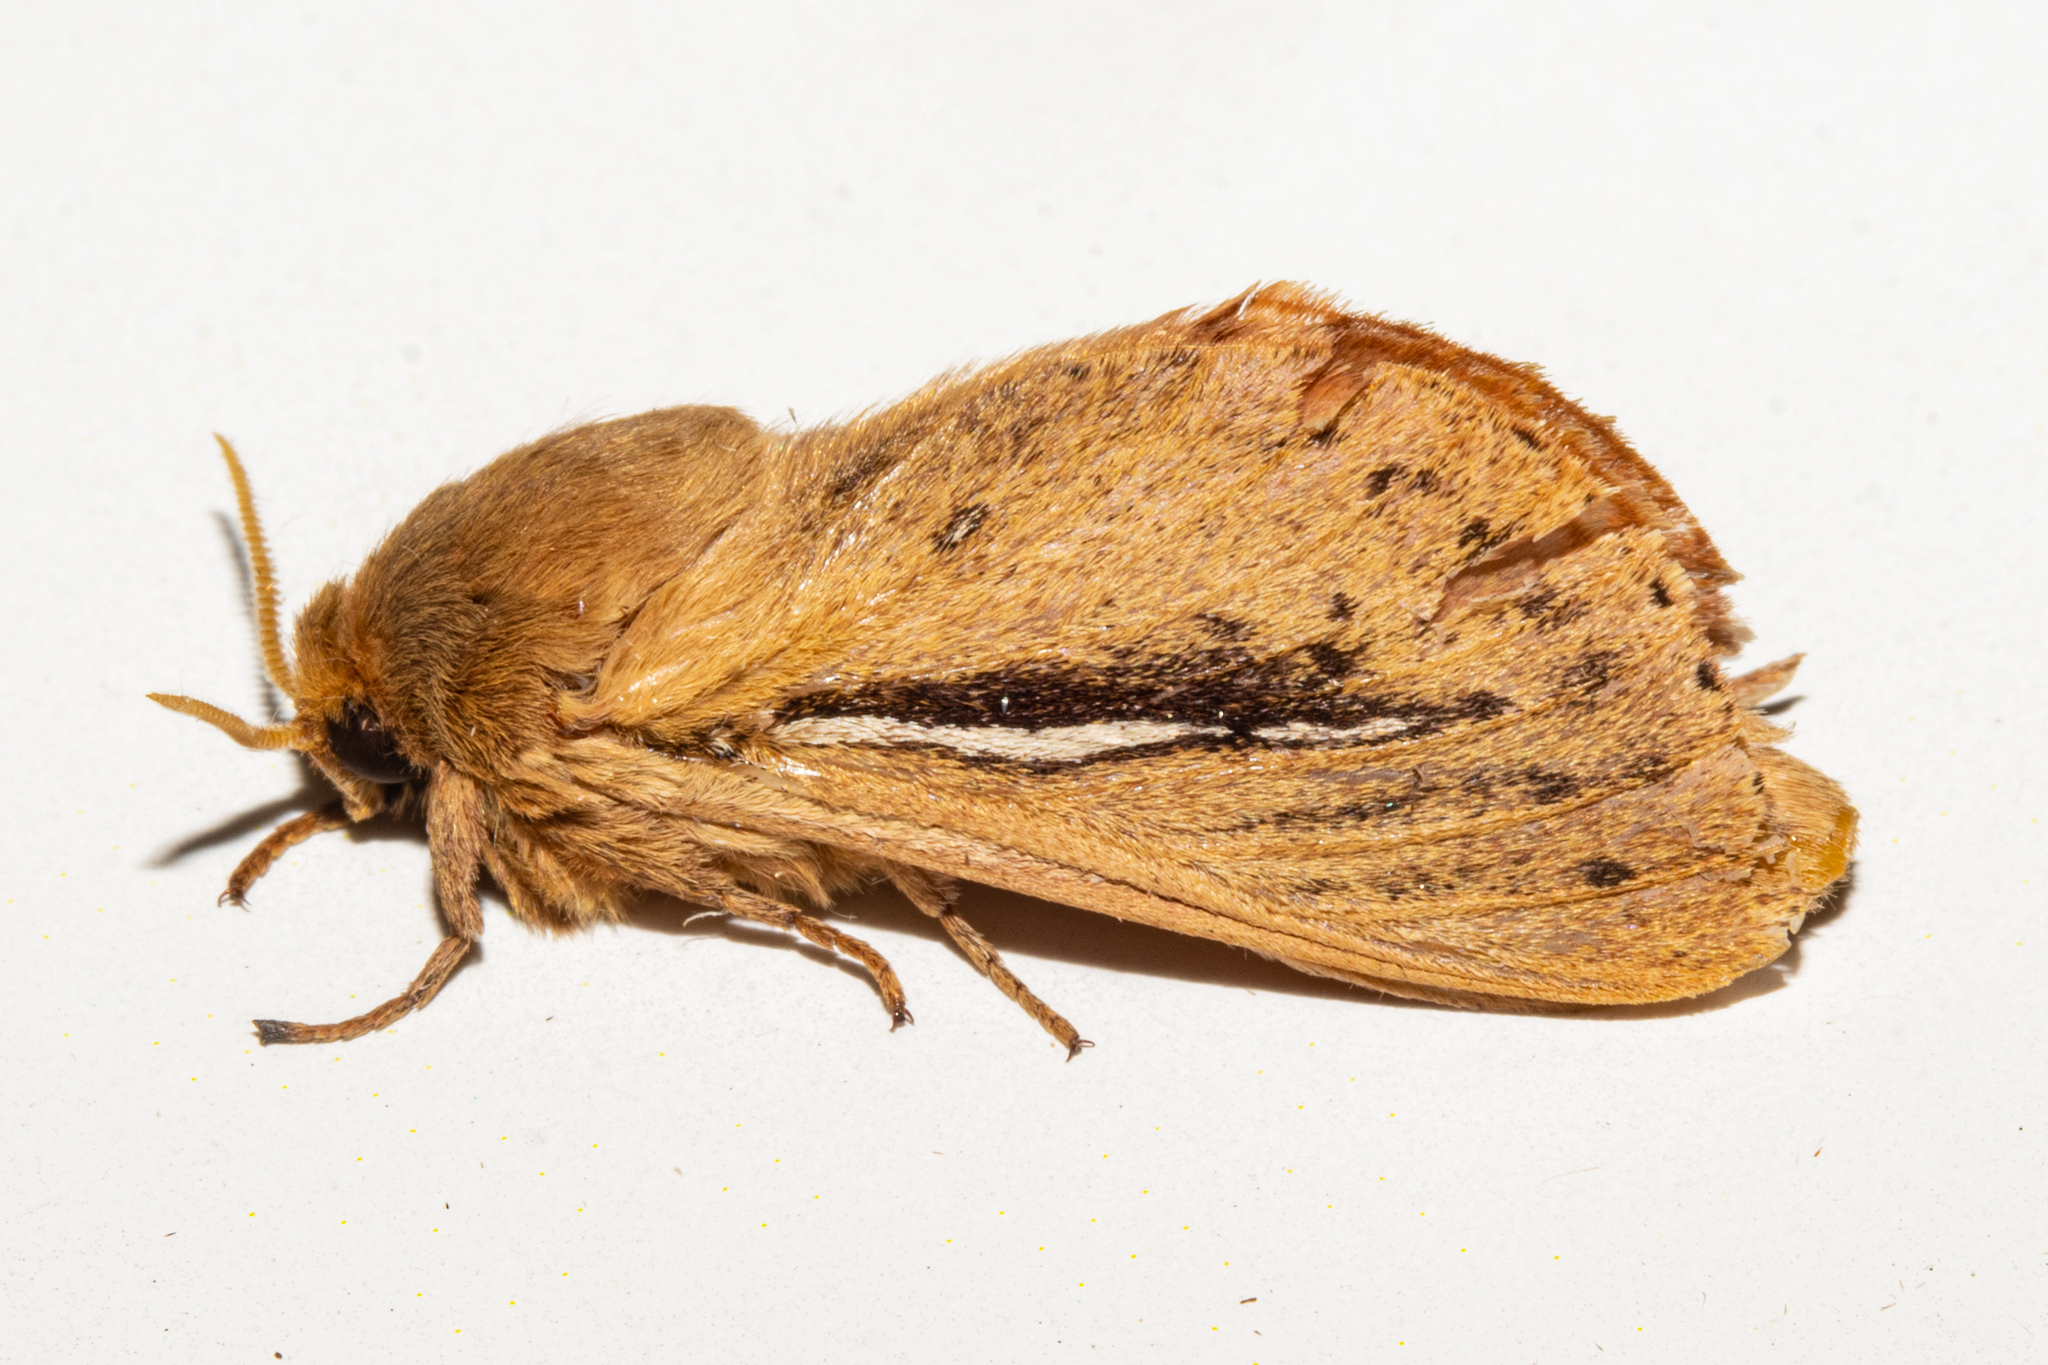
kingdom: Animalia
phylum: Arthropoda
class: Insecta
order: Lepidoptera
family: Hepialidae
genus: Wiseana
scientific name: Wiseana umbraculatus
